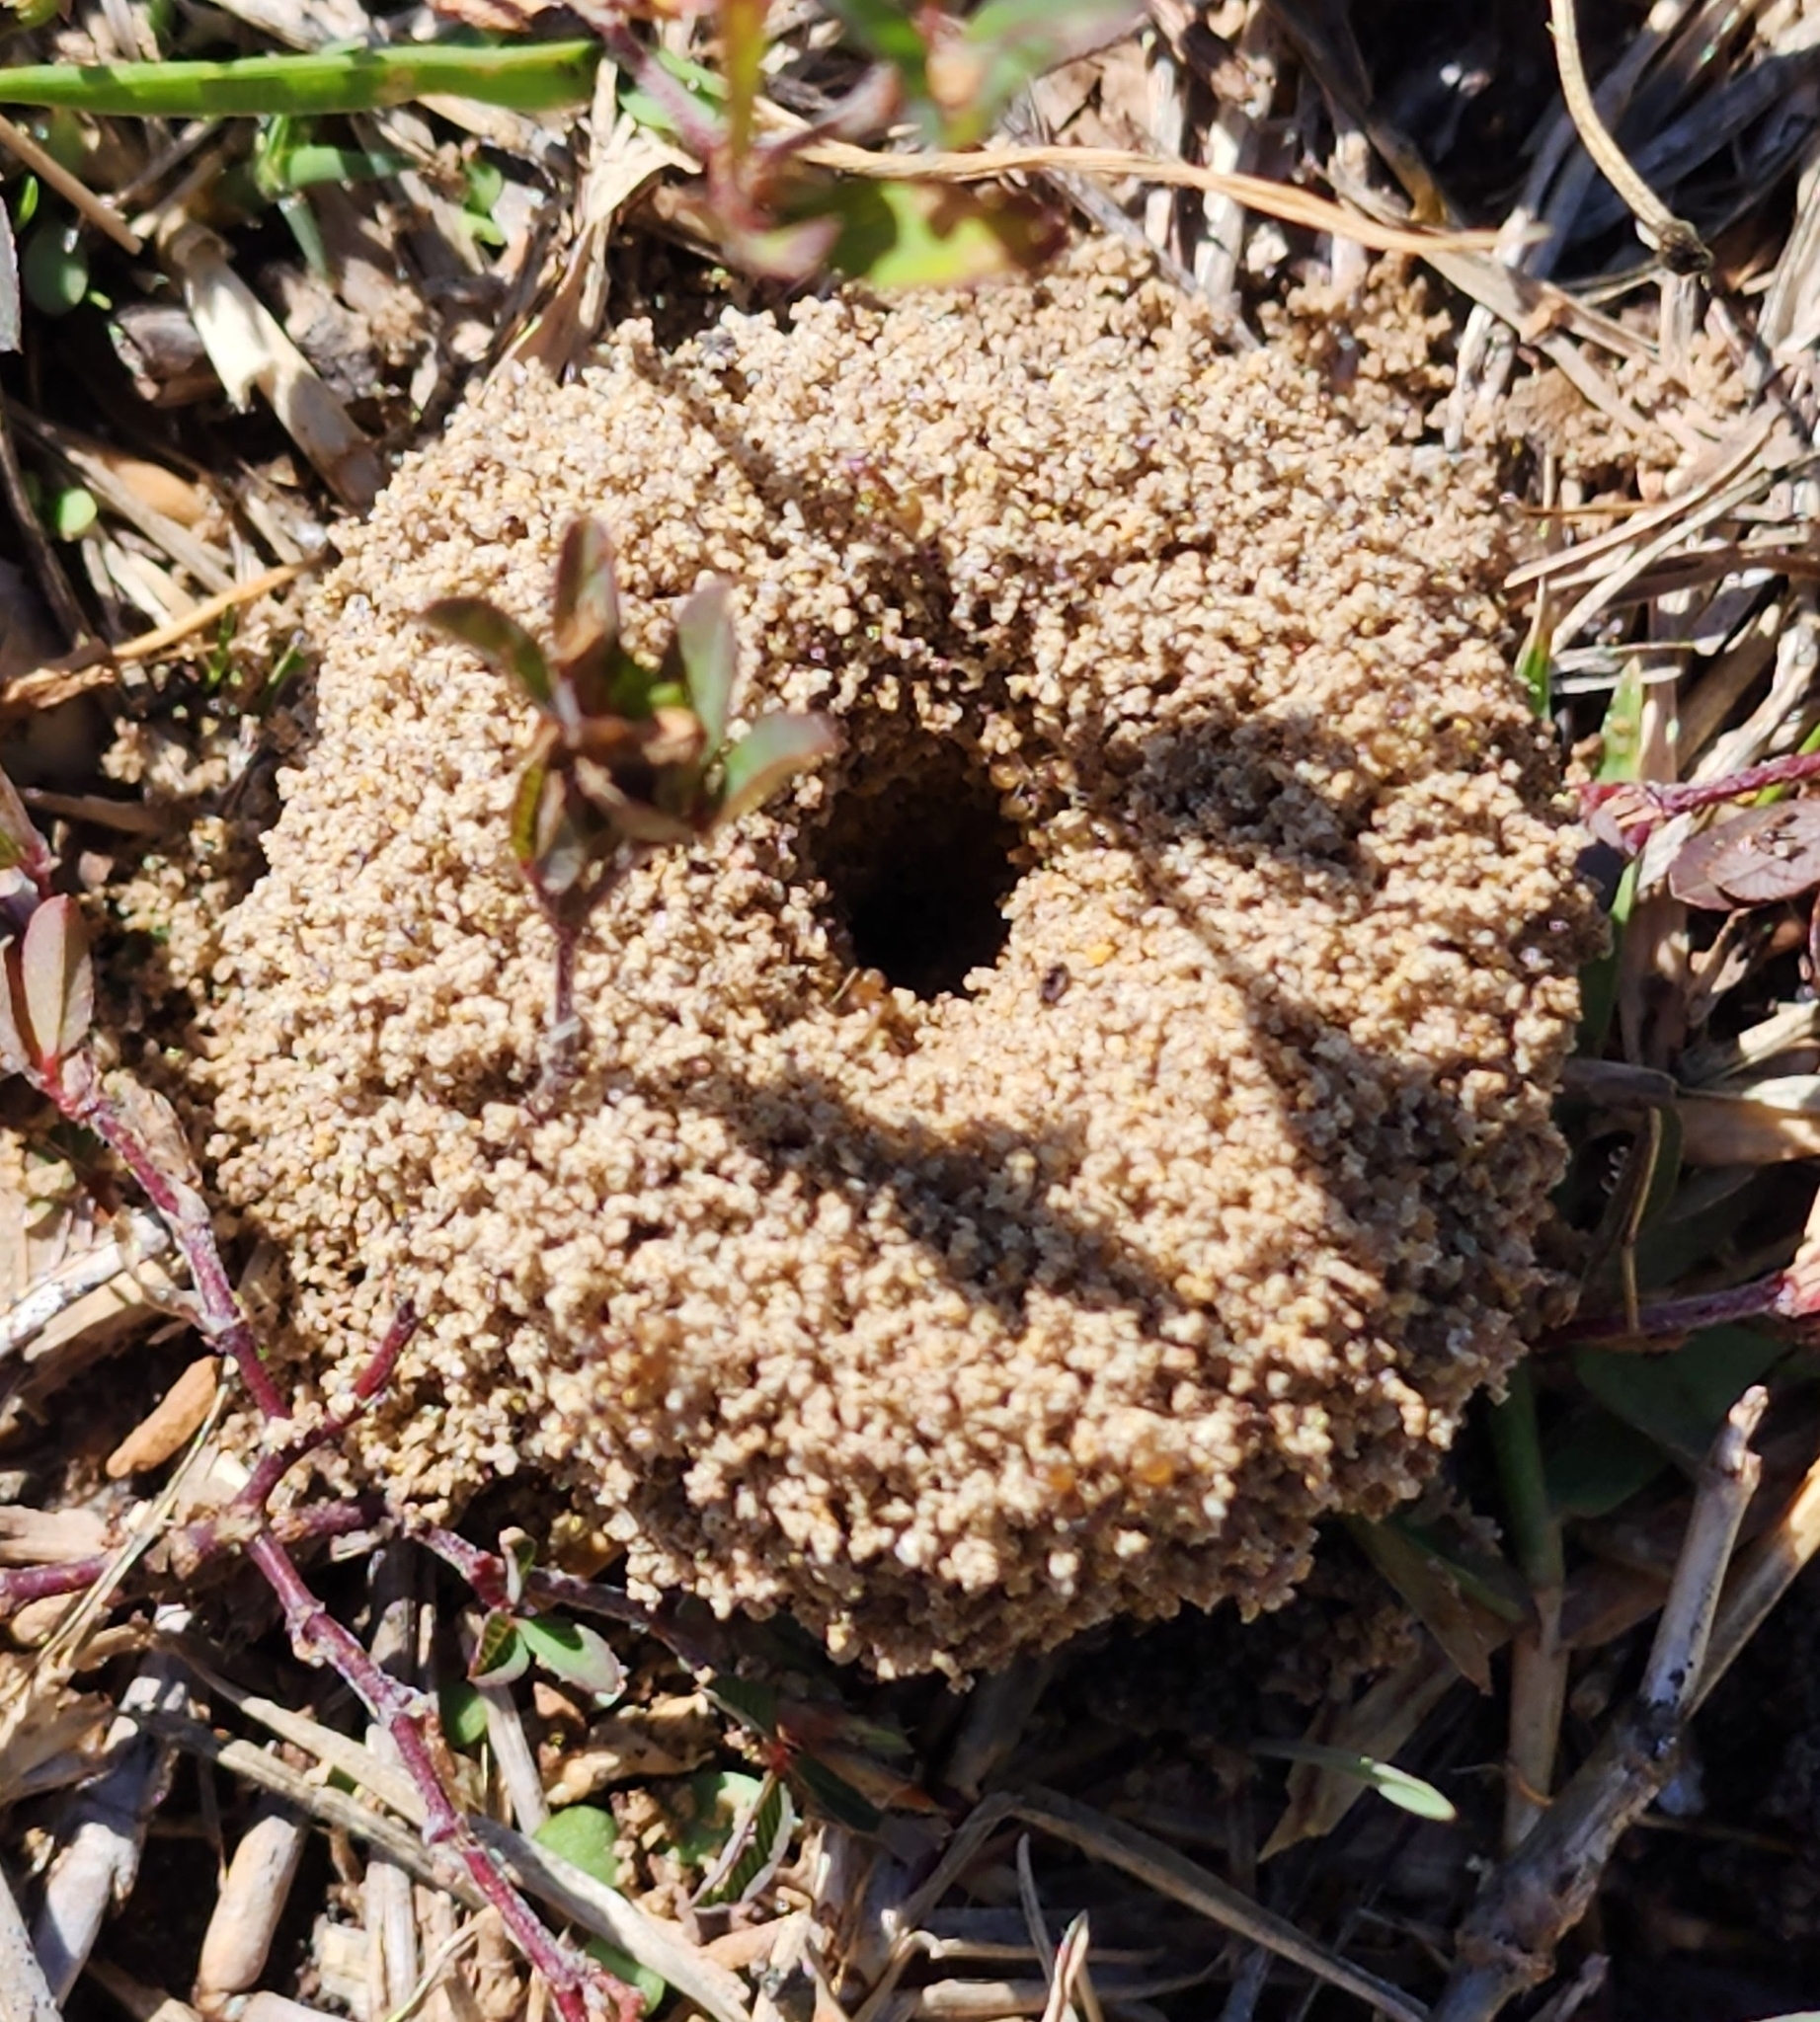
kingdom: Animalia
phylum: Arthropoda
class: Insecta
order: Hymenoptera
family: Formicidae
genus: Dorymyrmex
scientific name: Dorymyrmex flavus
